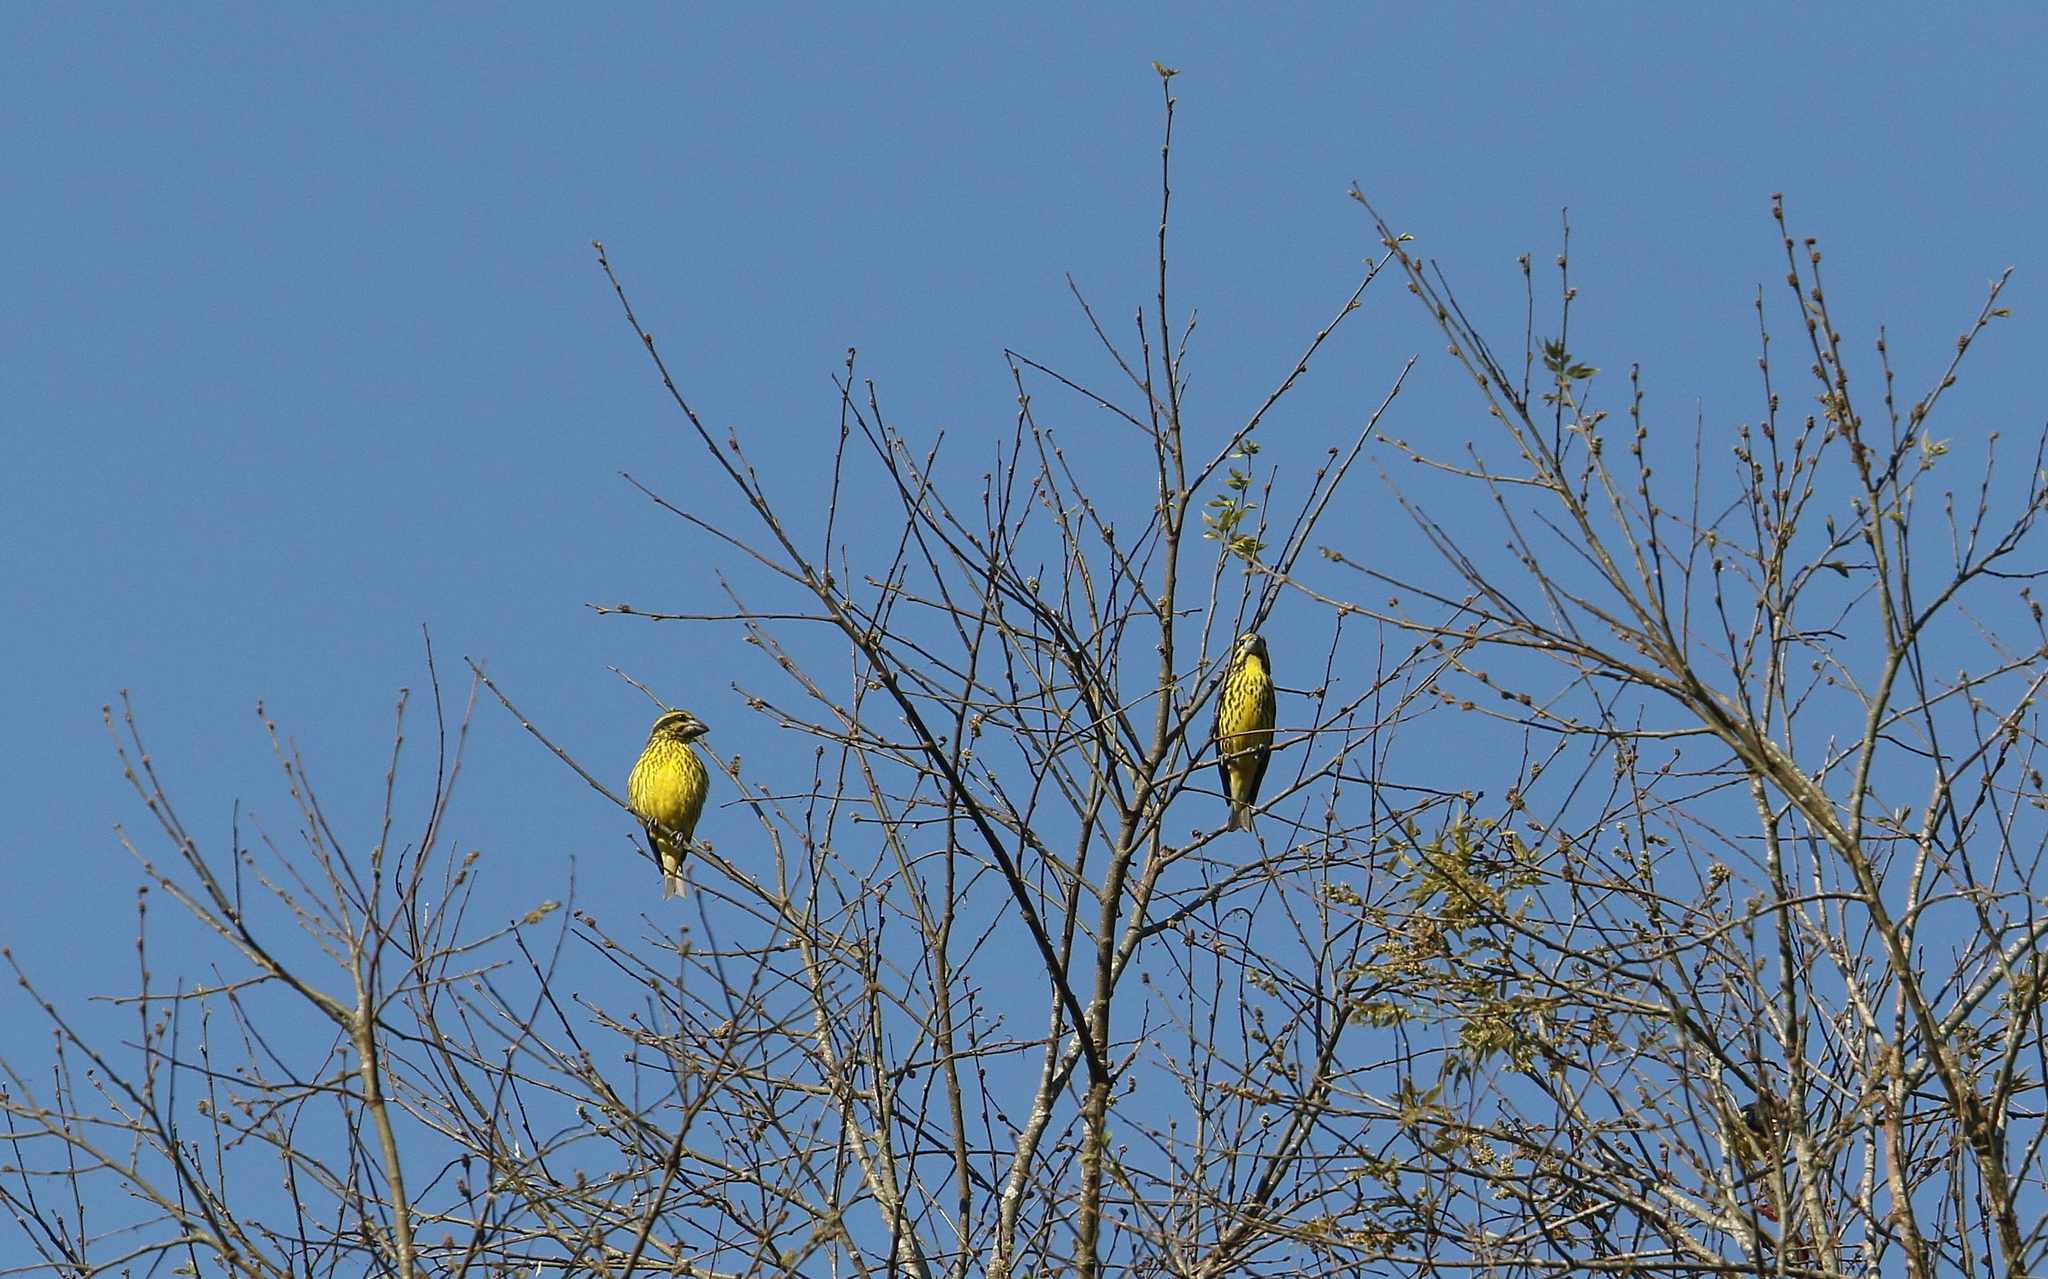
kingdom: Animalia
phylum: Chordata
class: Aves
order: Passeriformes
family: Fringillidae
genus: Mycerobas
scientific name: Mycerobas melanozanthos
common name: Spot-winged grosbeak
